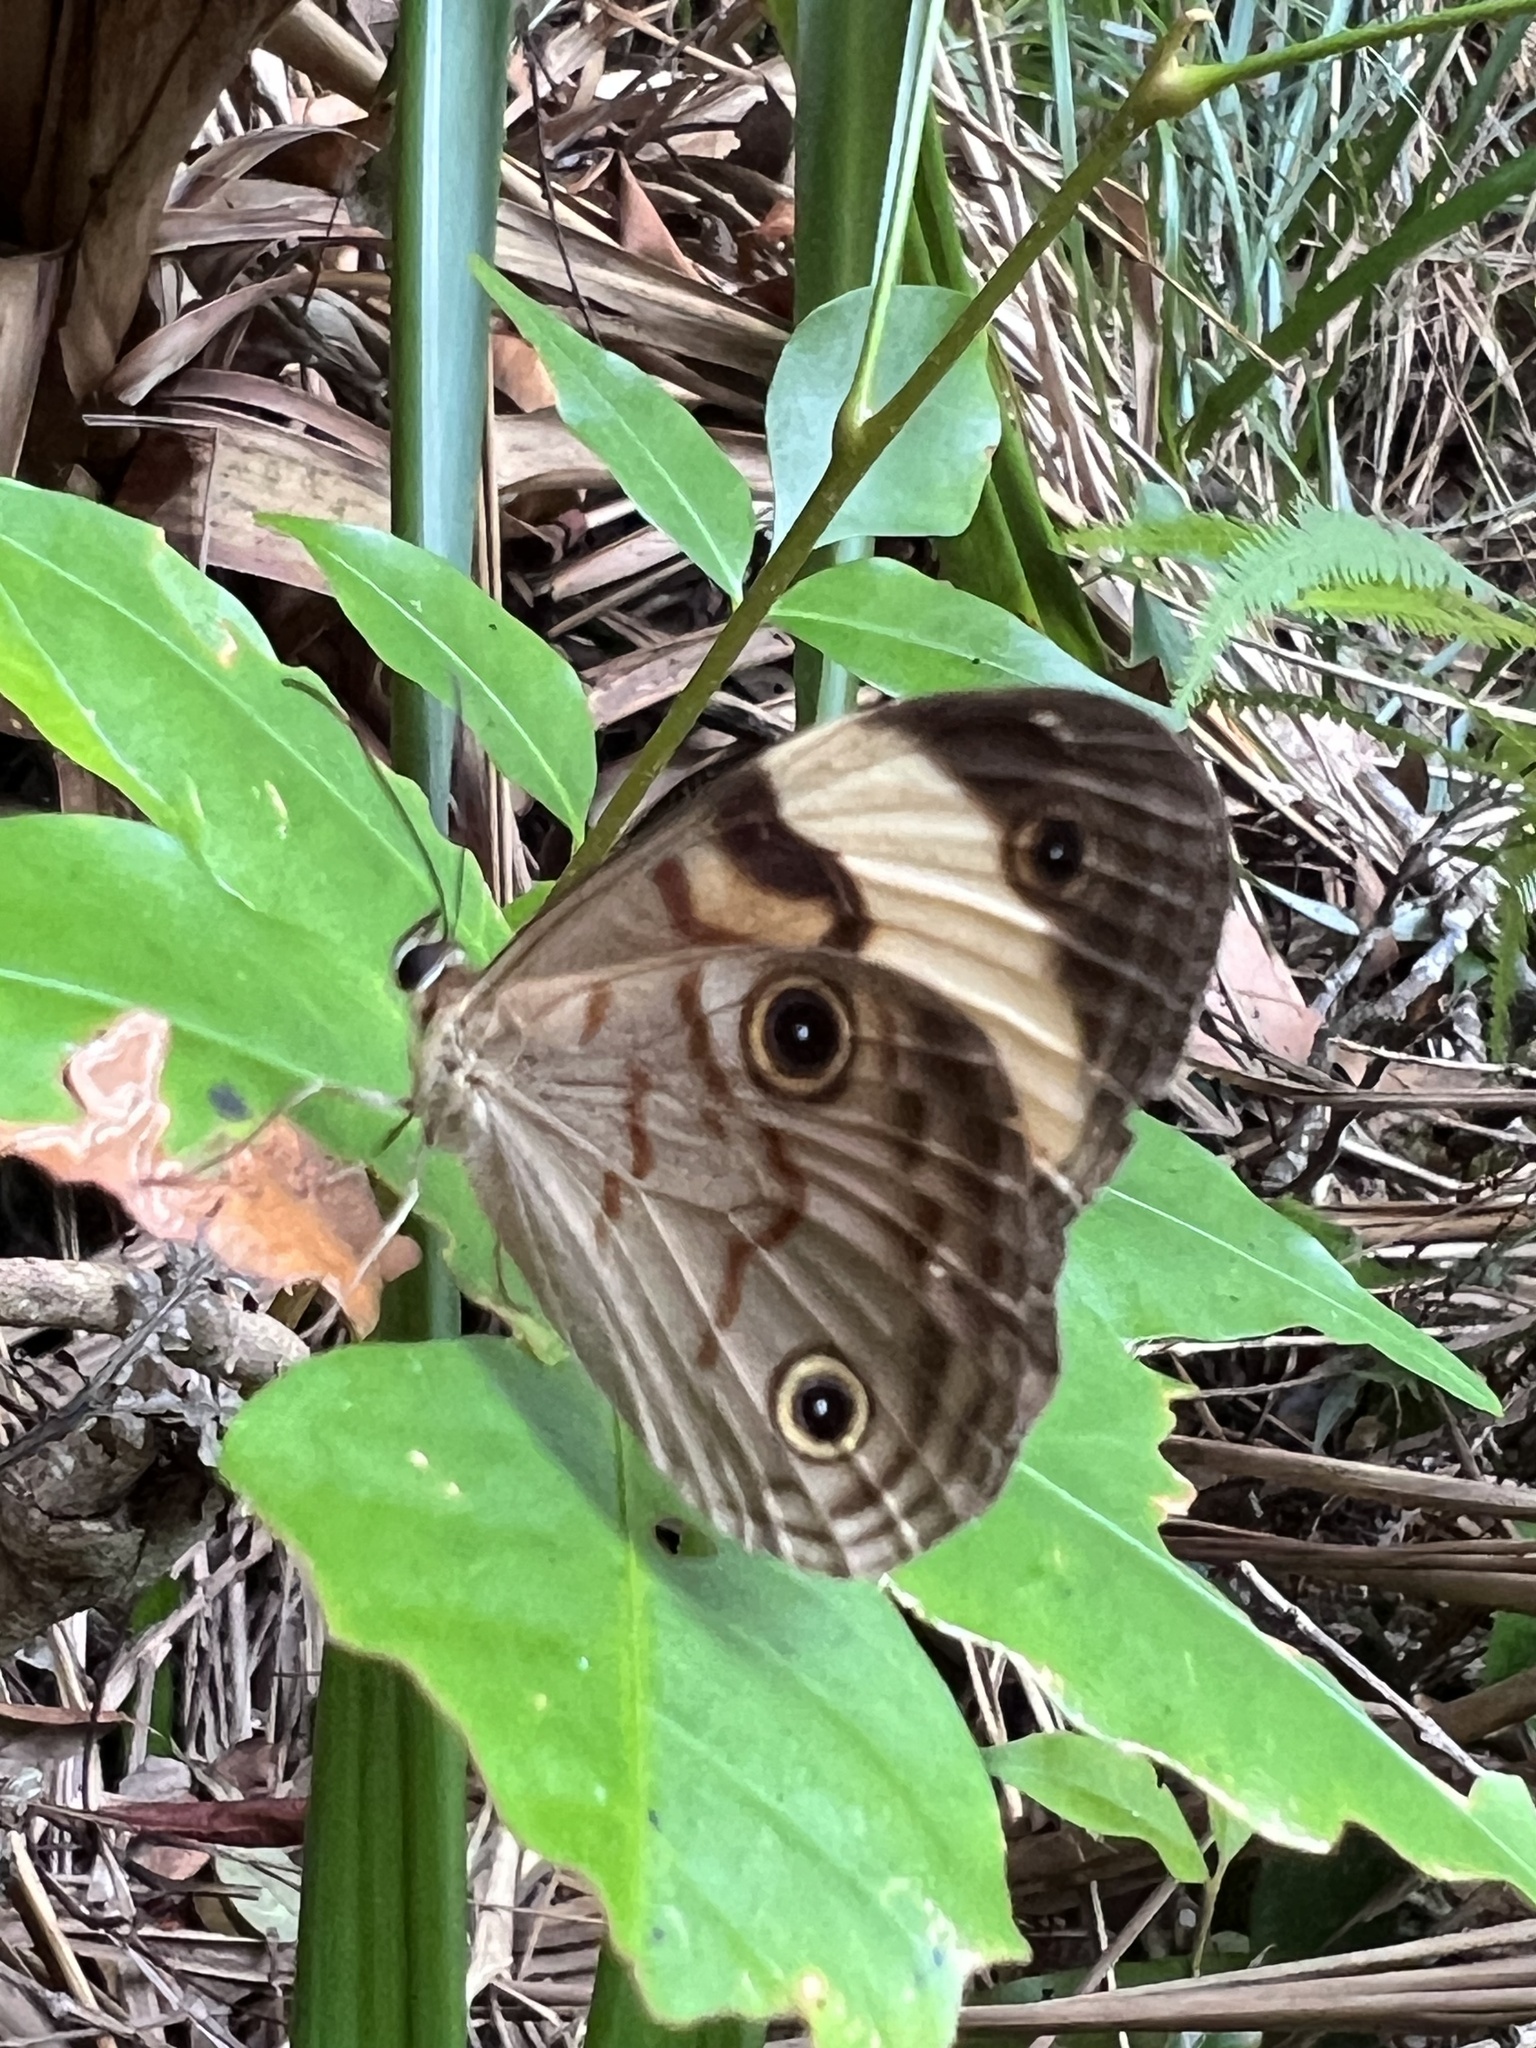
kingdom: Animalia
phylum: Arthropoda
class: Insecta
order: Lepidoptera
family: Nymphalidae
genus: Tisiphone
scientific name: Tisiphone helena
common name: Northern sword-grass brown
